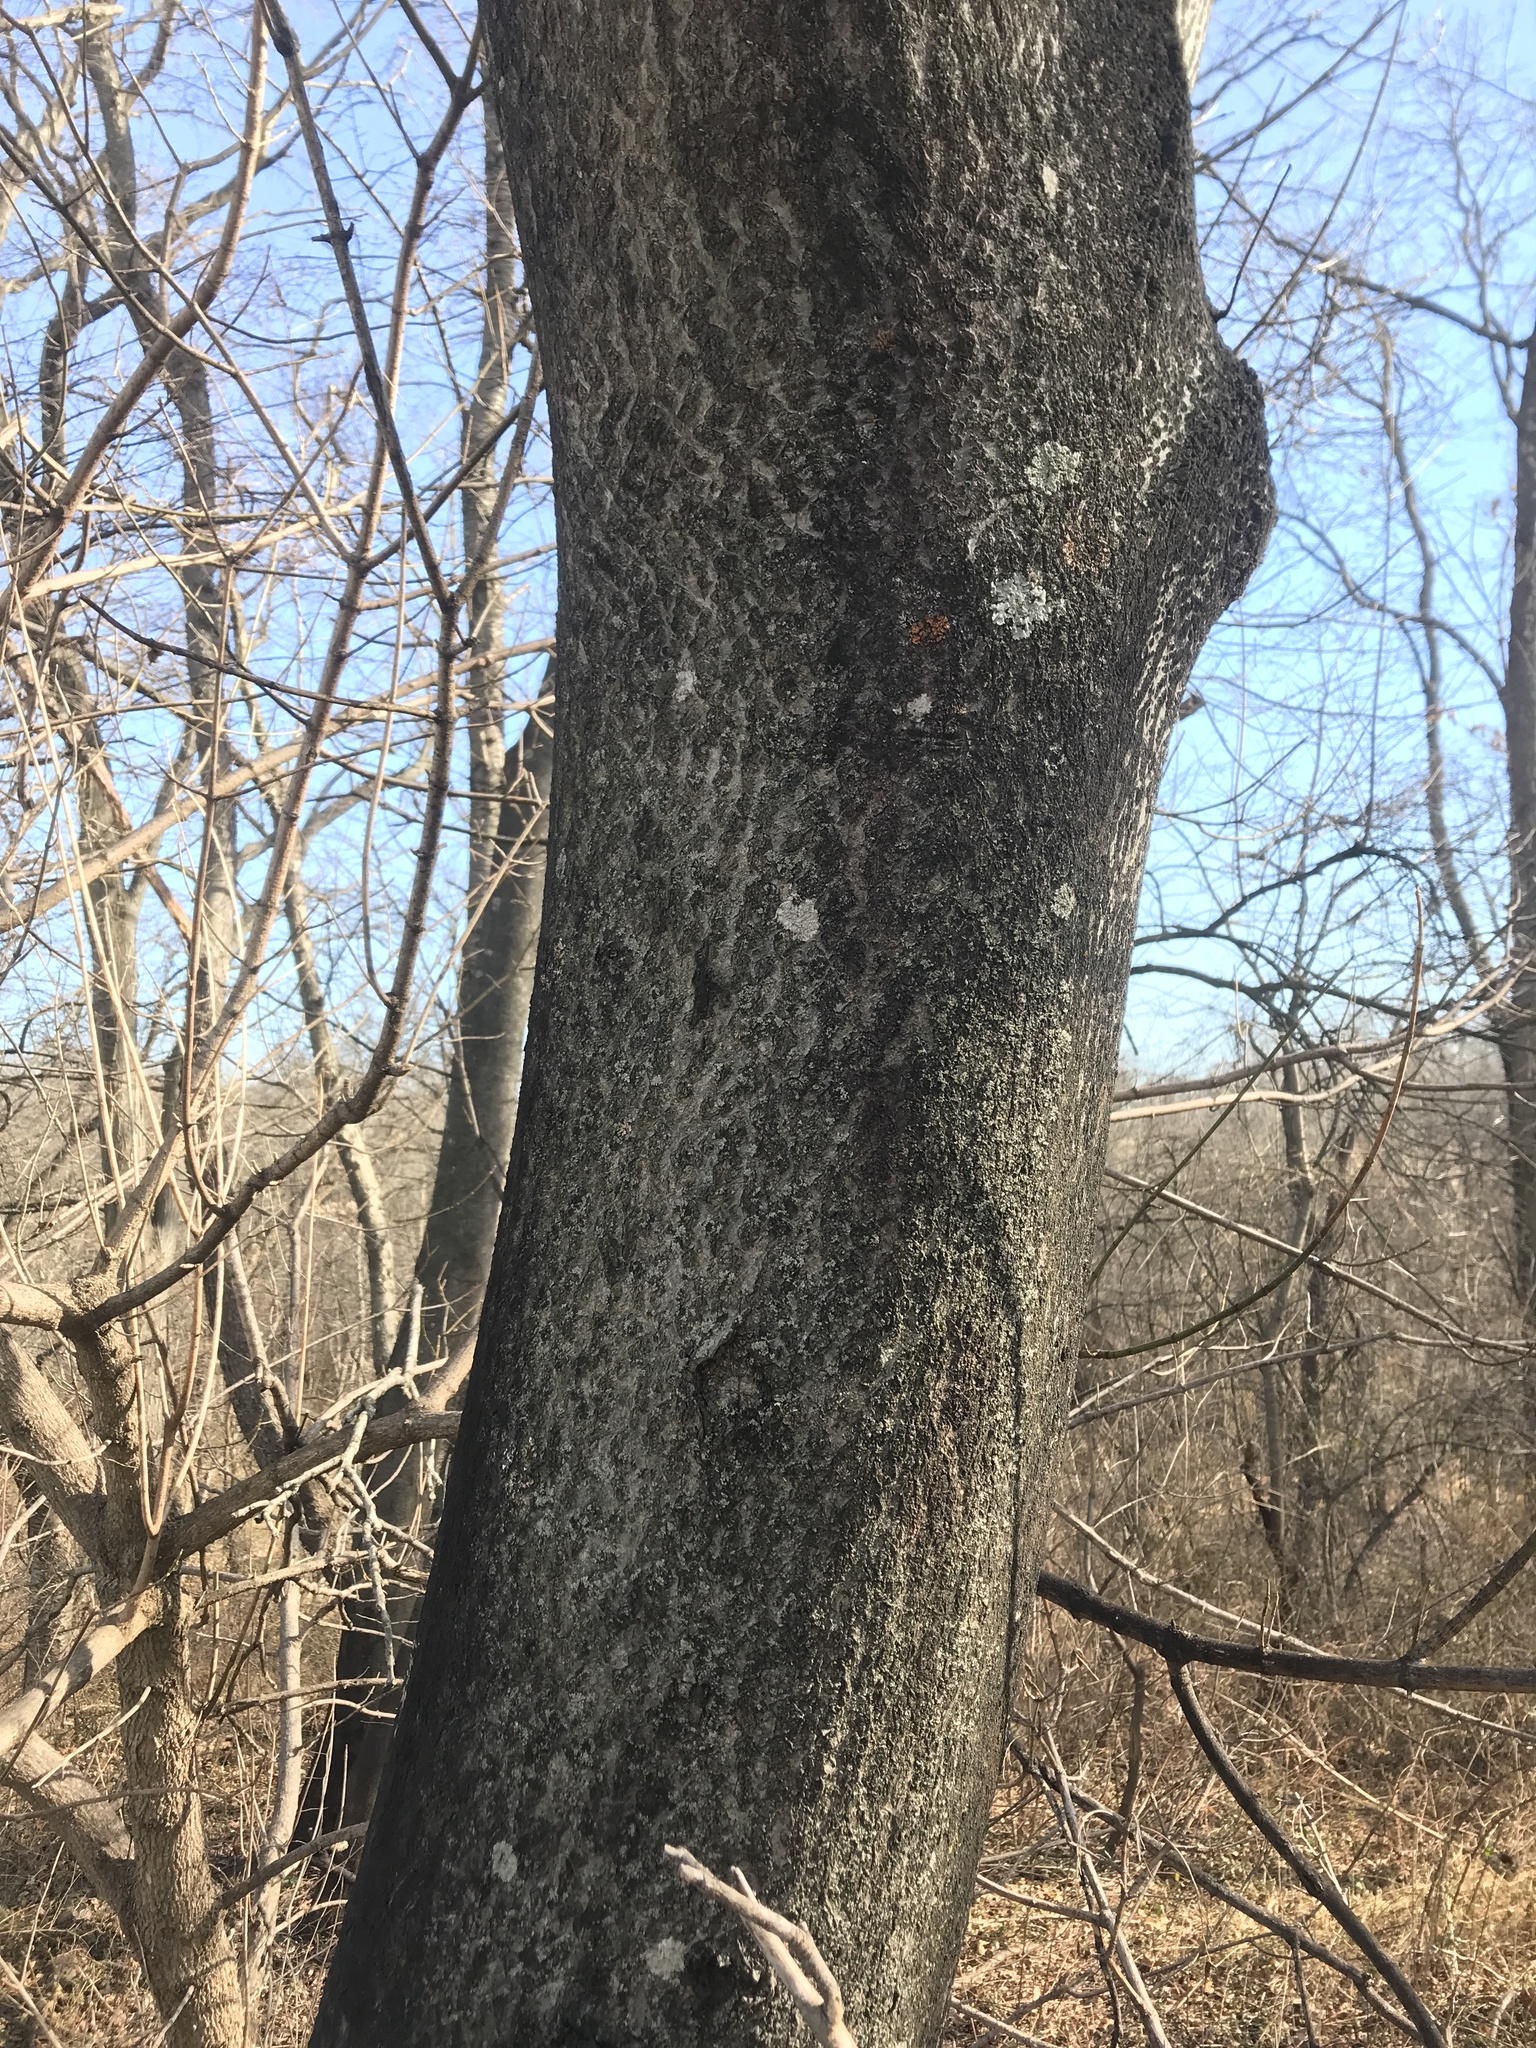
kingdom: Plantae
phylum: Tracheophyta
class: Magnoliopsida
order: Sapindales
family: Simaroubaceae
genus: Ailanthus
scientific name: Ailanthus altissima
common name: Tree-of-heaven
